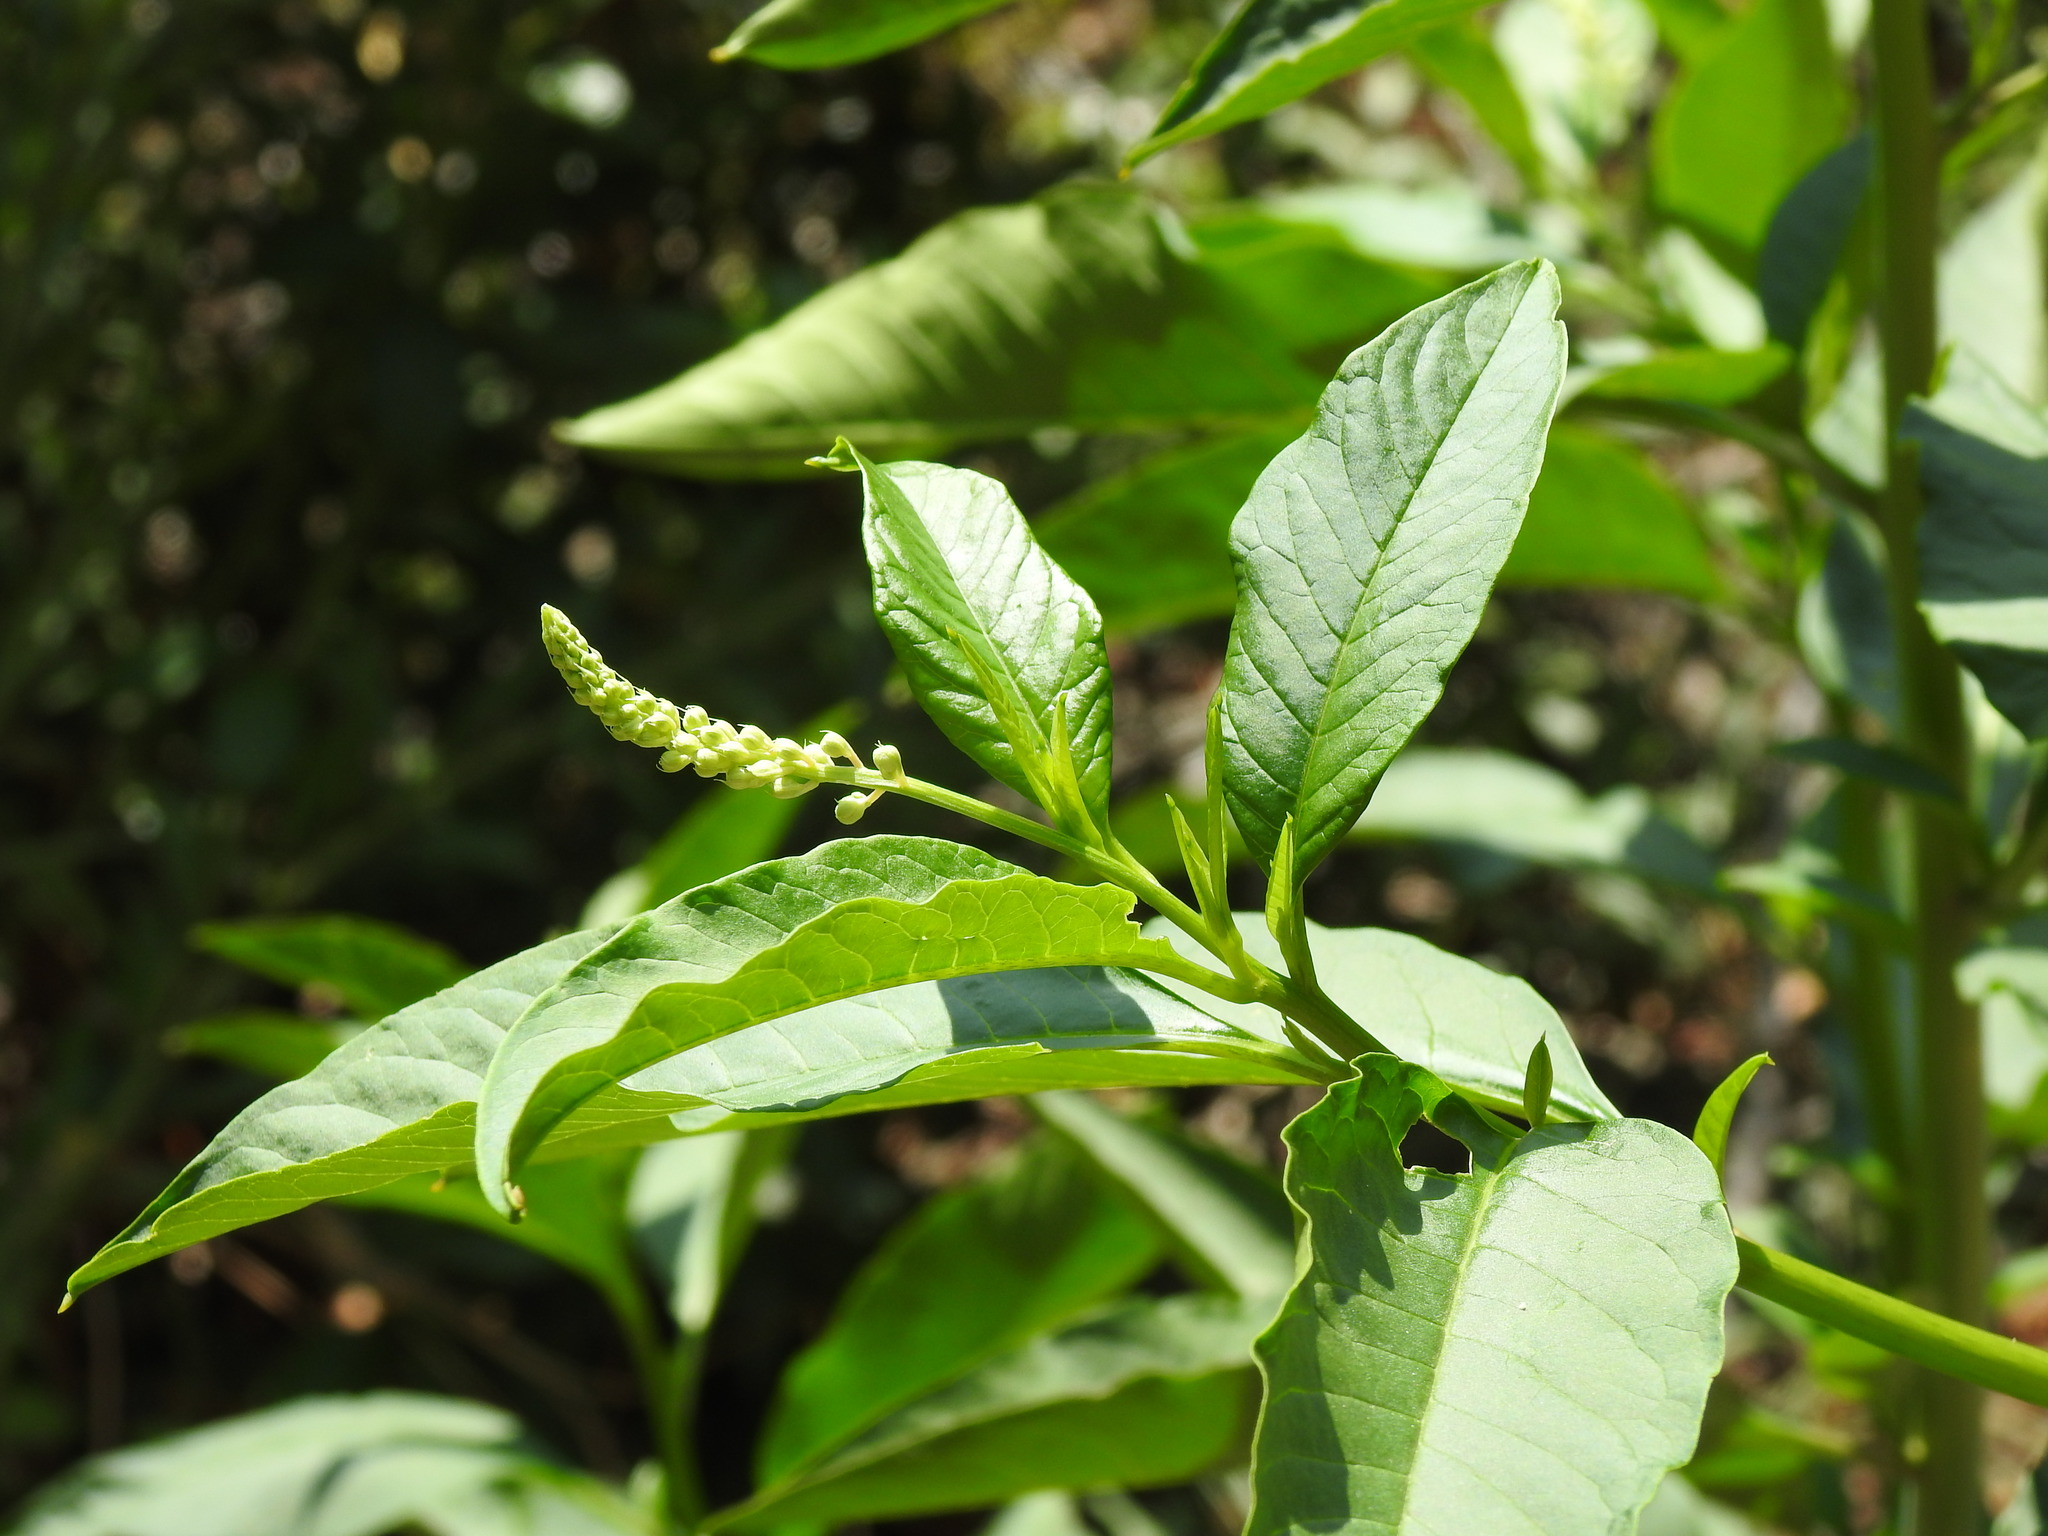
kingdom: Plantae
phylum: Tracheophyta
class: Magnoliopsida
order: Caryophyllales
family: Phytolaccaceae
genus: Phytolacca
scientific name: Phytolacca americana
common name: American pokeweed
